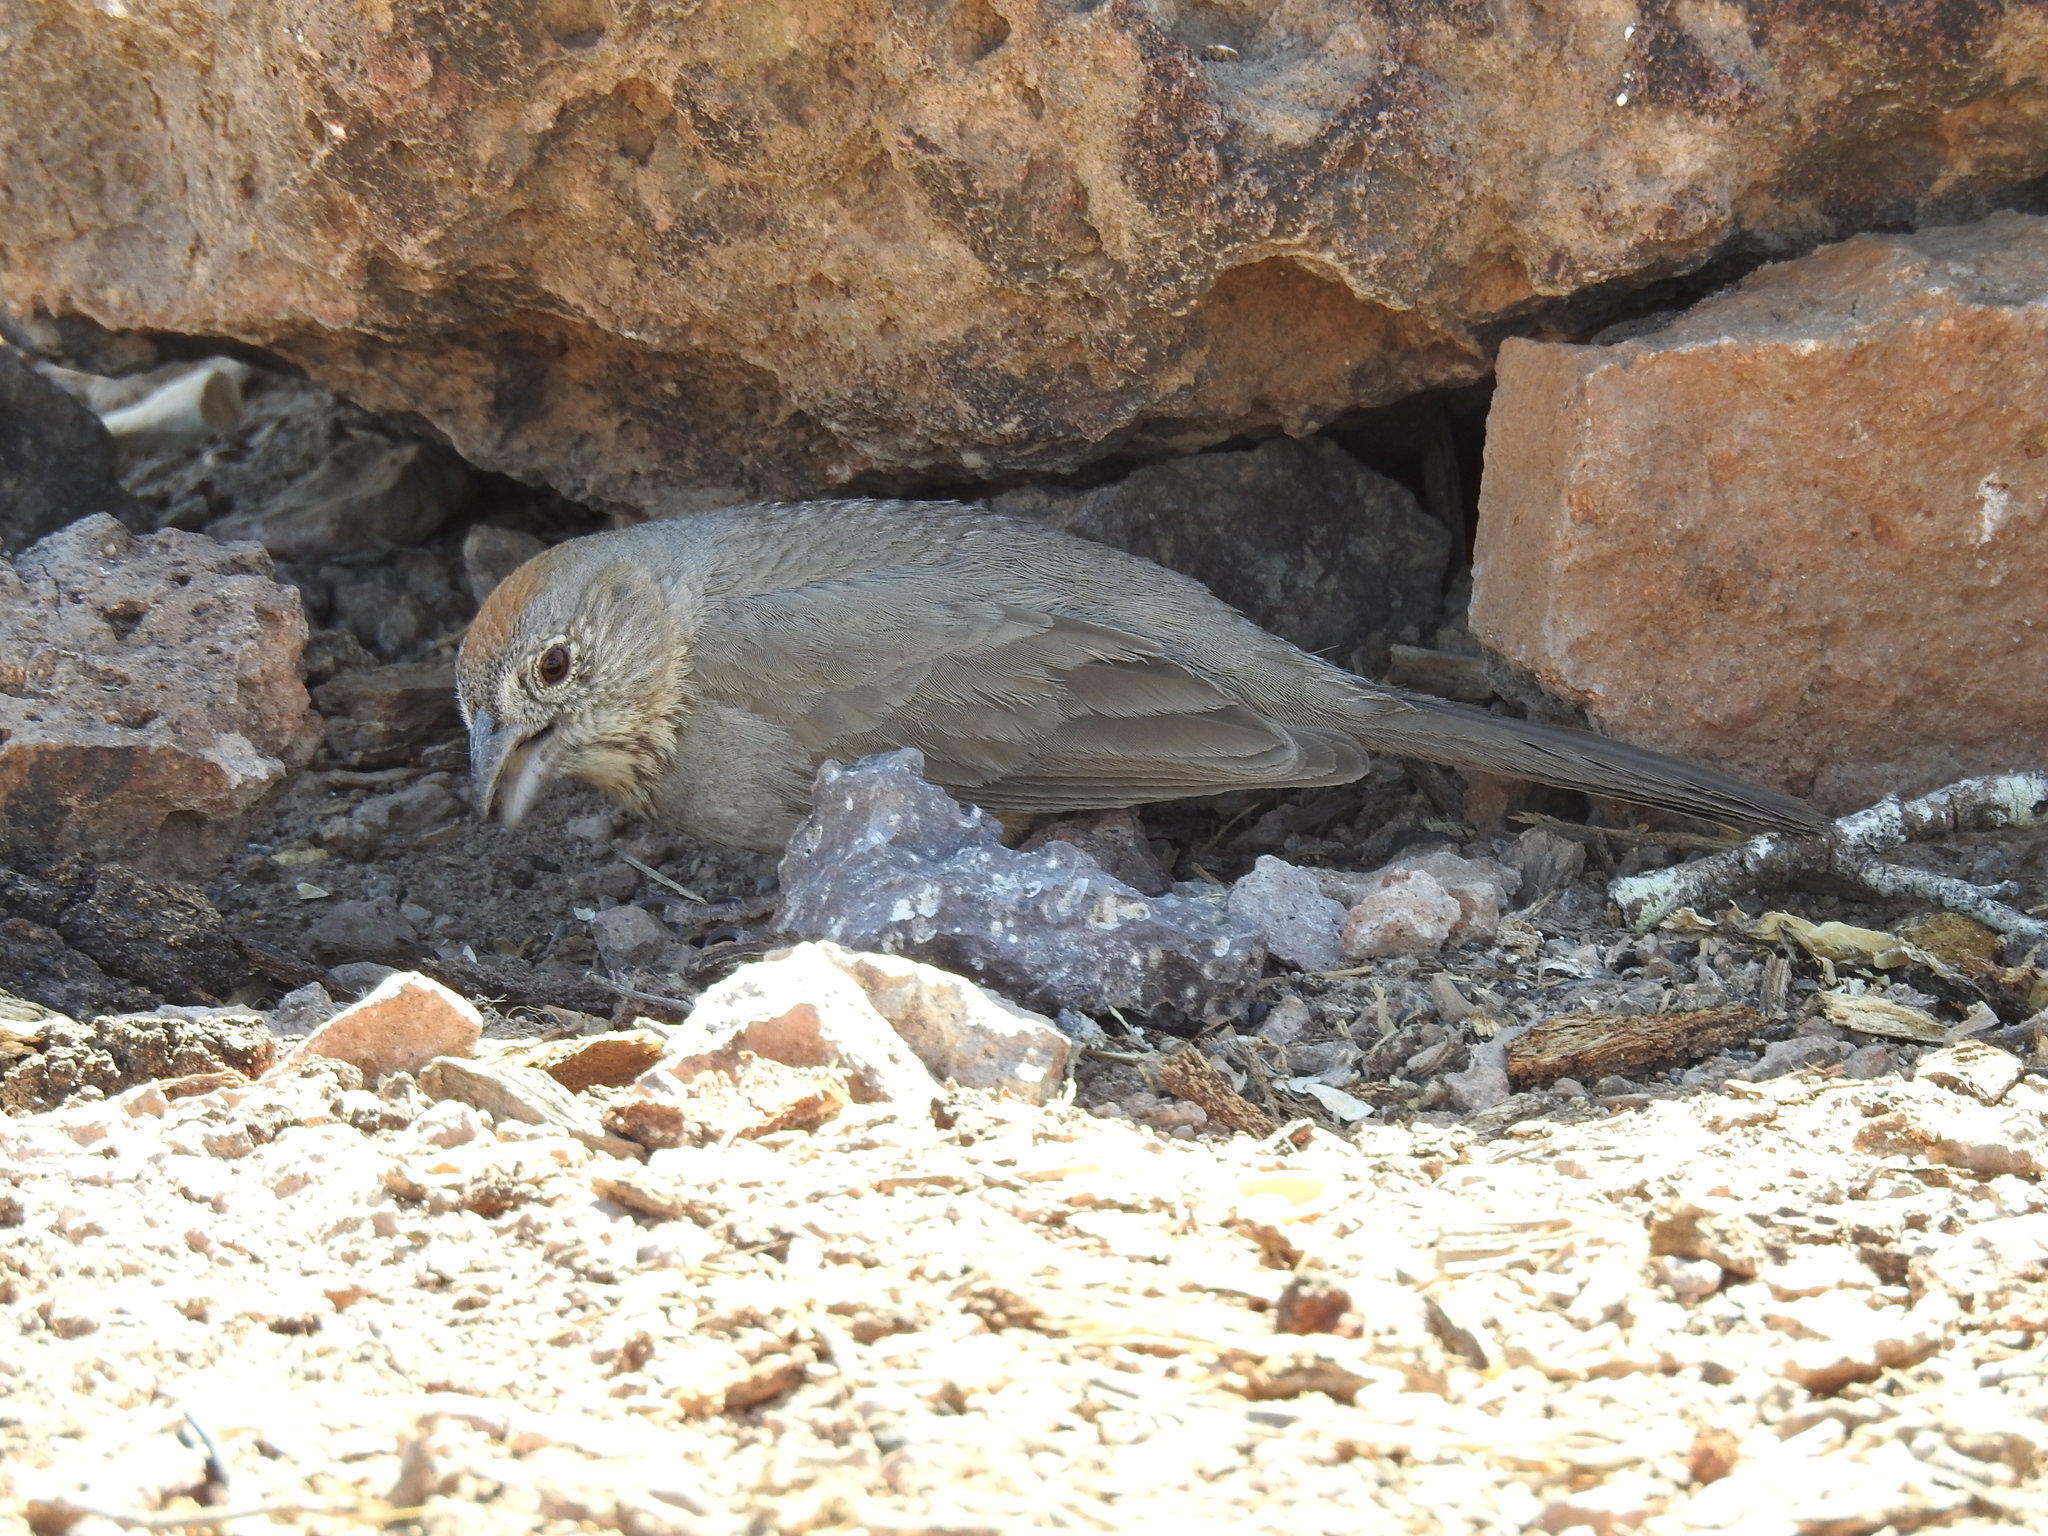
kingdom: Animalia
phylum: Chordata
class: Aves
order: Passeriformes
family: Passerellidae
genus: Melozone
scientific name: Melozone fusca
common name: Canyon towhee
